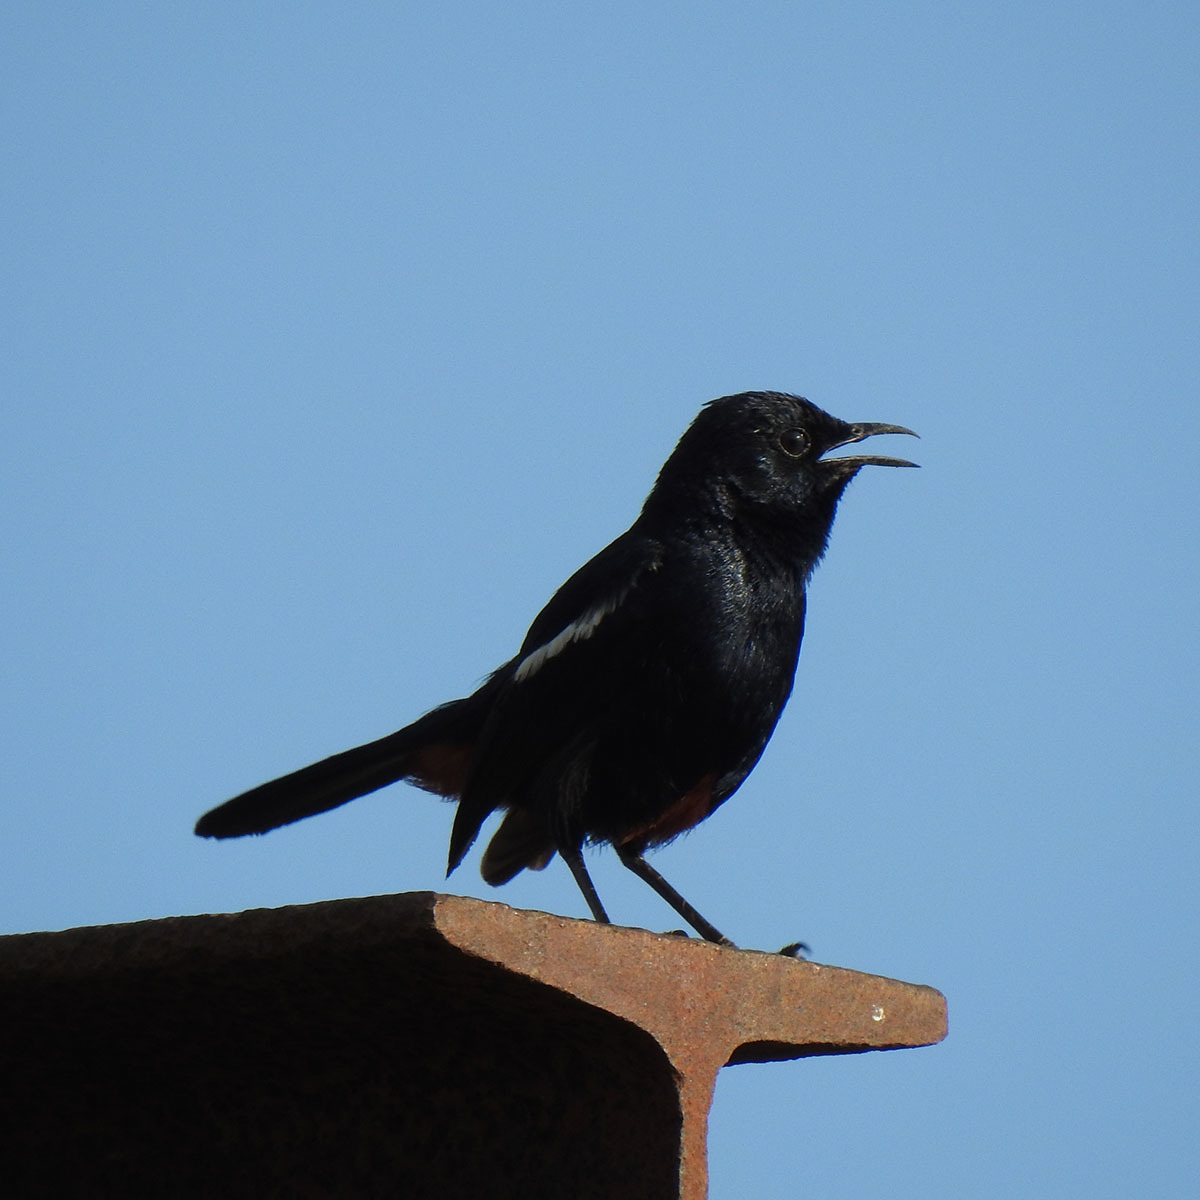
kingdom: Animalia
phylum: Chordata
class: Aves
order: Passeriformes
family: Muscicapidae
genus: Saxicoloides
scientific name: Saxicoloides fulicatus
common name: Indian robin
